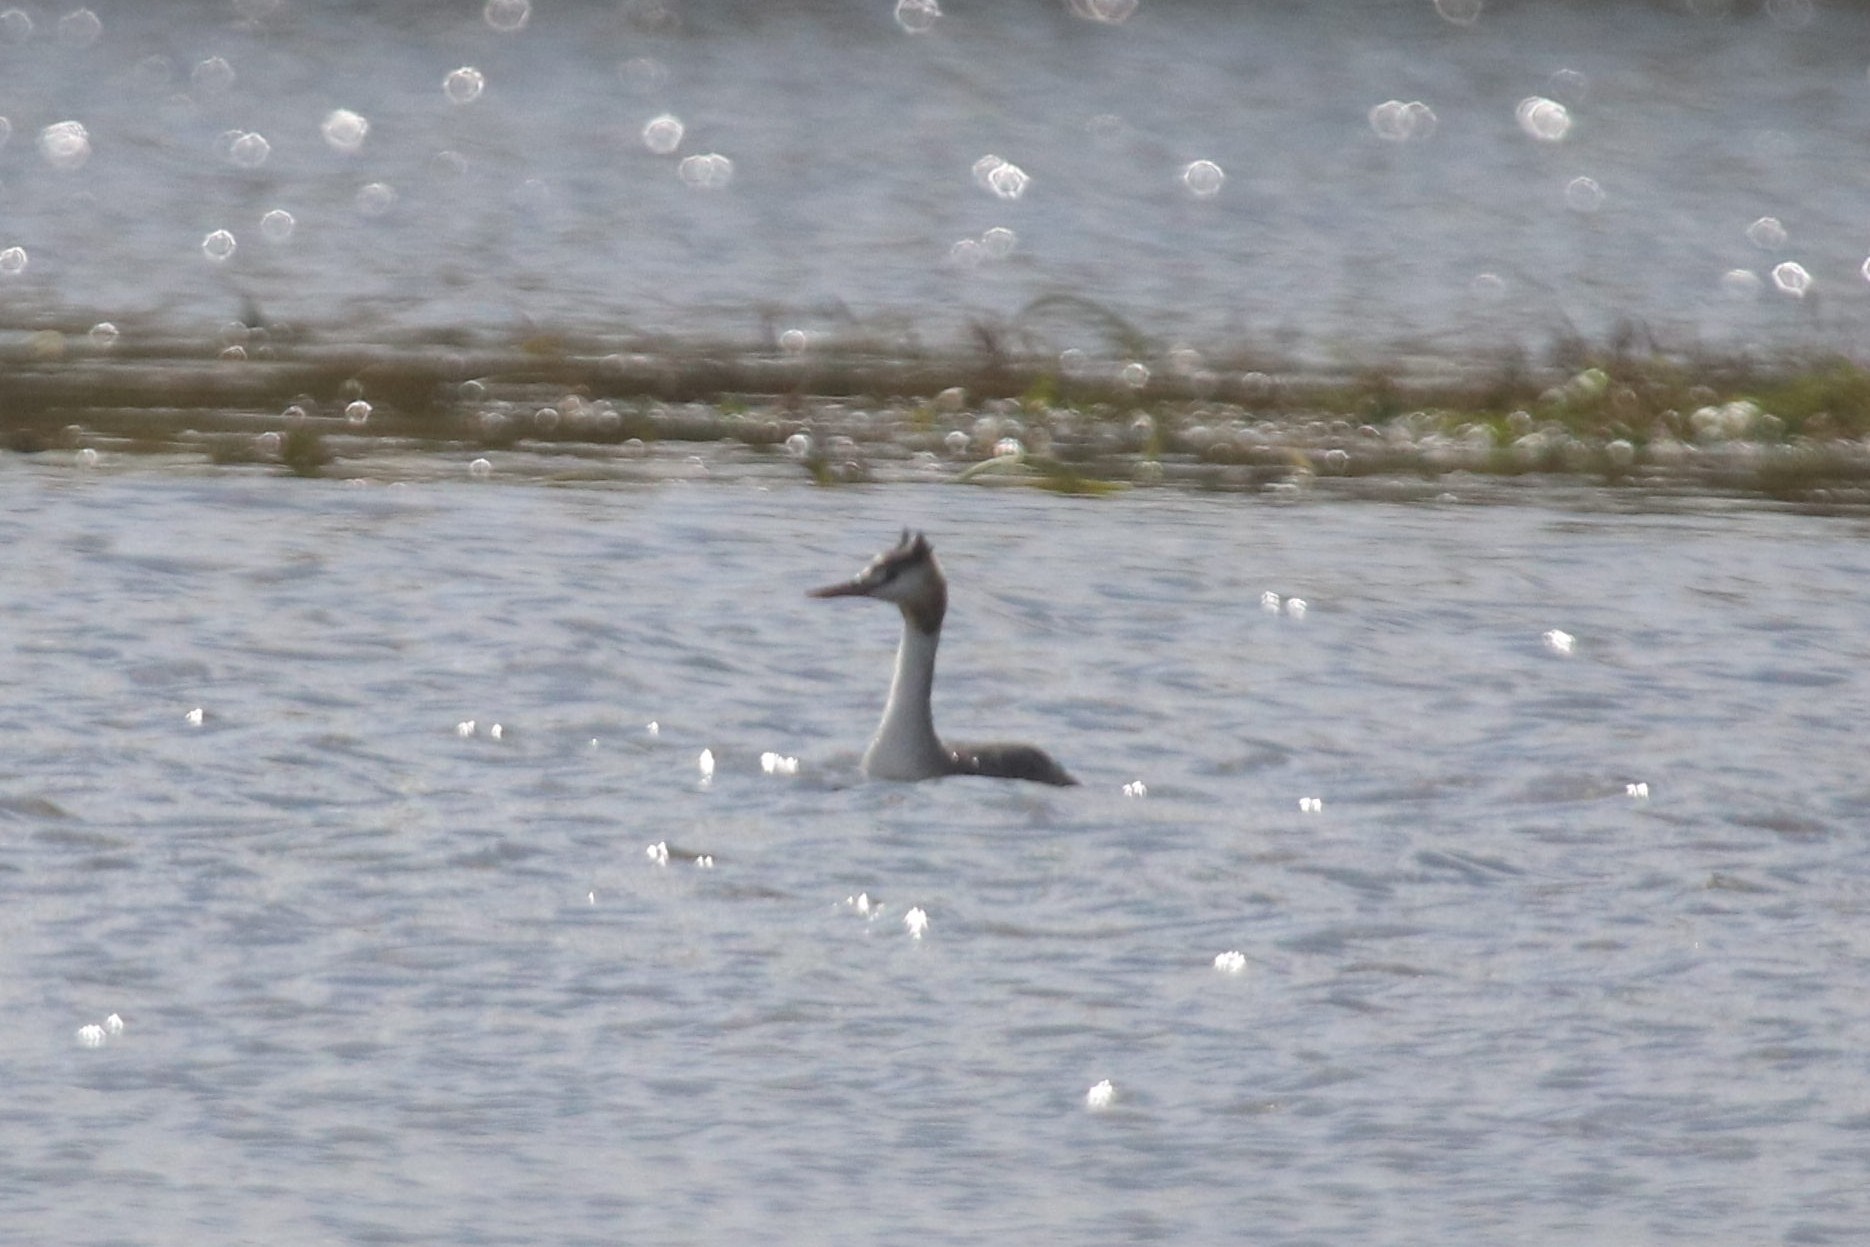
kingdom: Animalia
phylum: Chordata
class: Aves
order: Podicipediformes
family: Podicipedidae
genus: Podiceps
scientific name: Podiceps cristatus
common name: Great crested grebe
